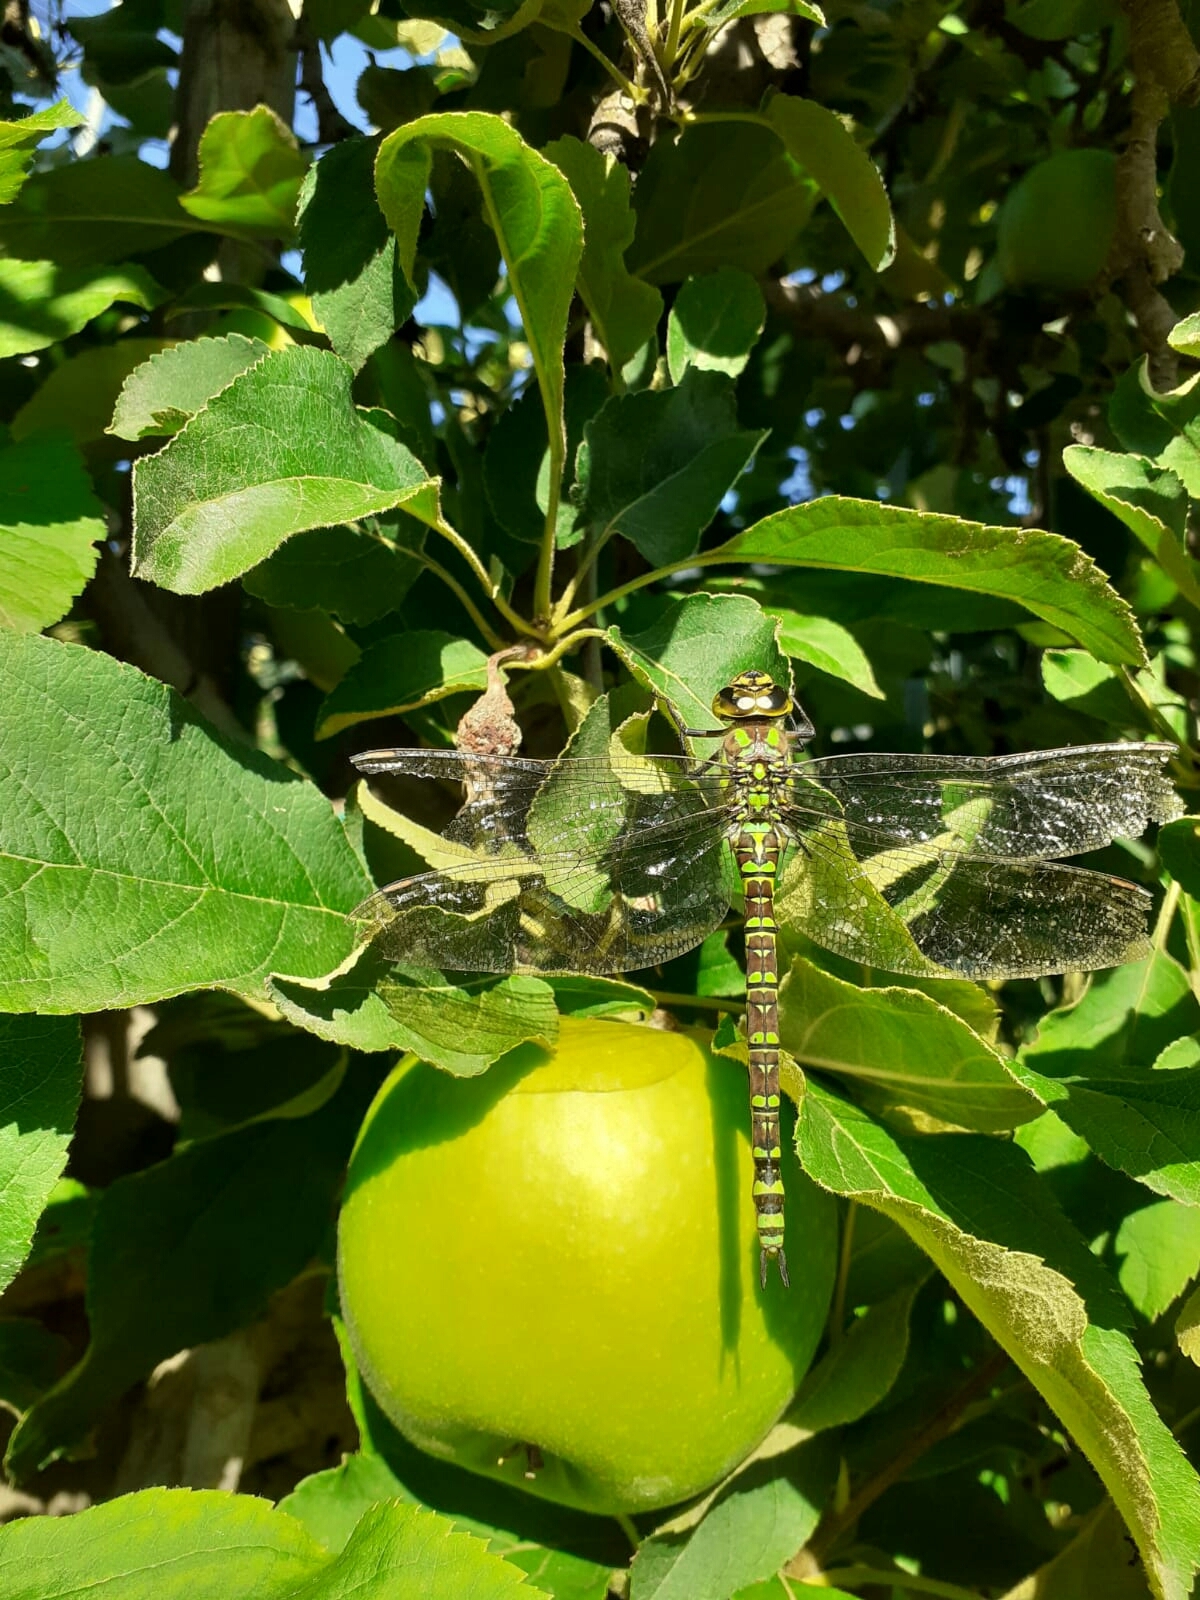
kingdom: Animalia
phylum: Arthropoda
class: Insecta
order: Odonata
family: Aeshnidae
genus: Aeshna
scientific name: Aeshna cyanea
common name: Southern hawker
